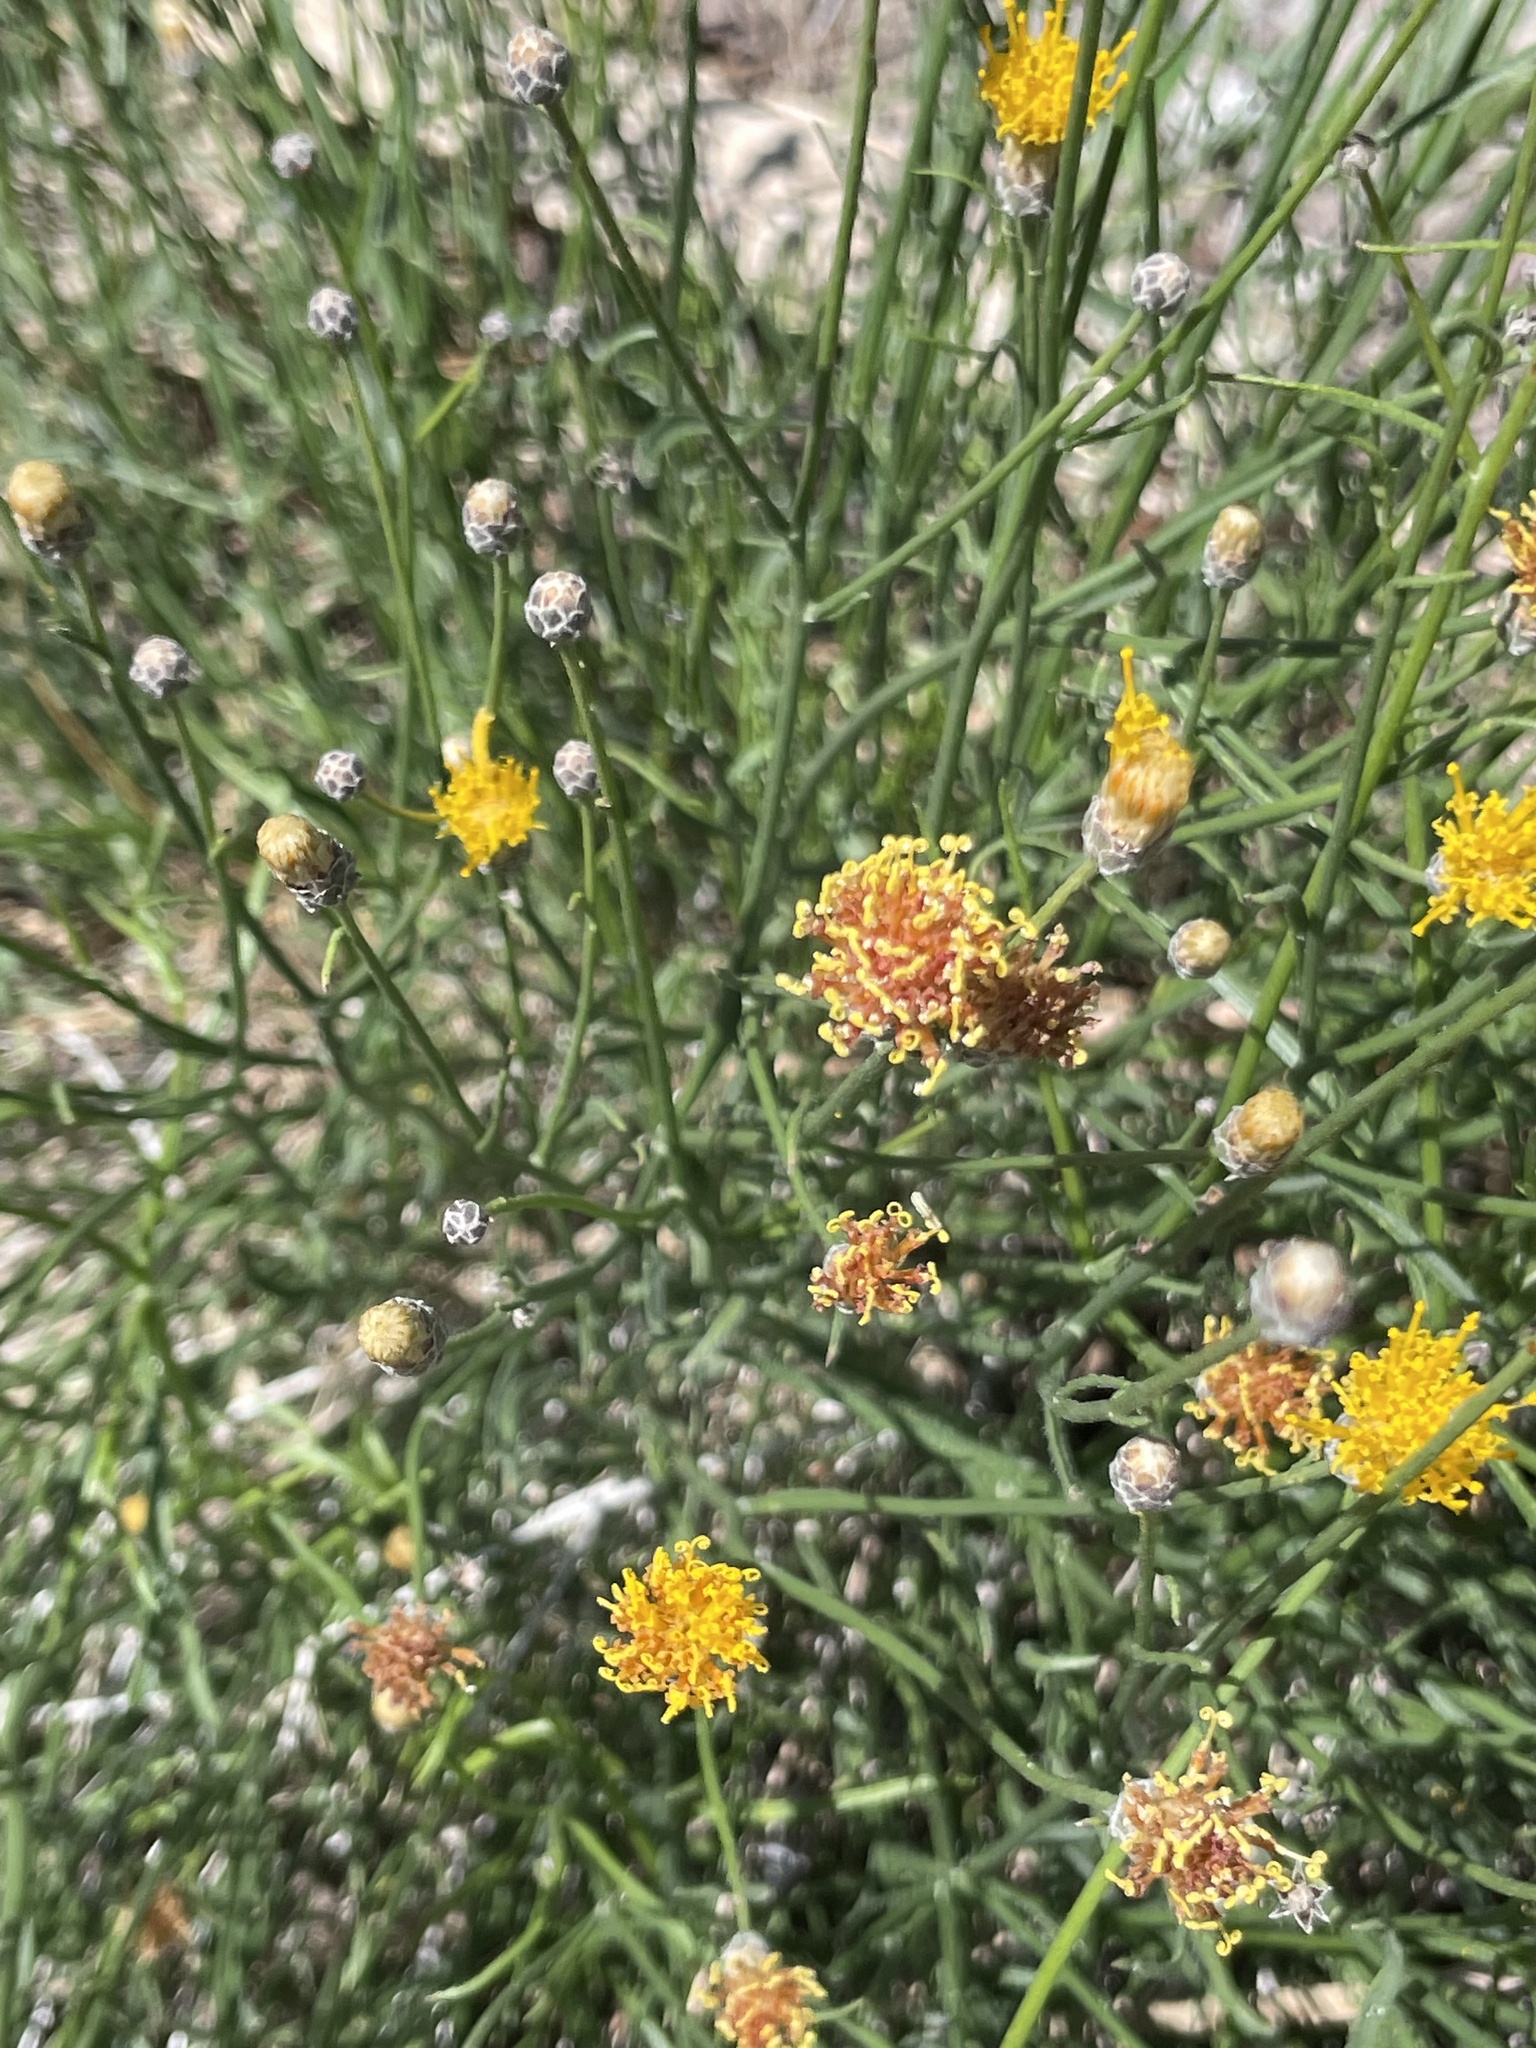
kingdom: Plantae
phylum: Tracheophyta
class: Magnoliopsida
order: Asterales
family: Asteraceae
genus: Bebbia
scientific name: Bebbia juncea
